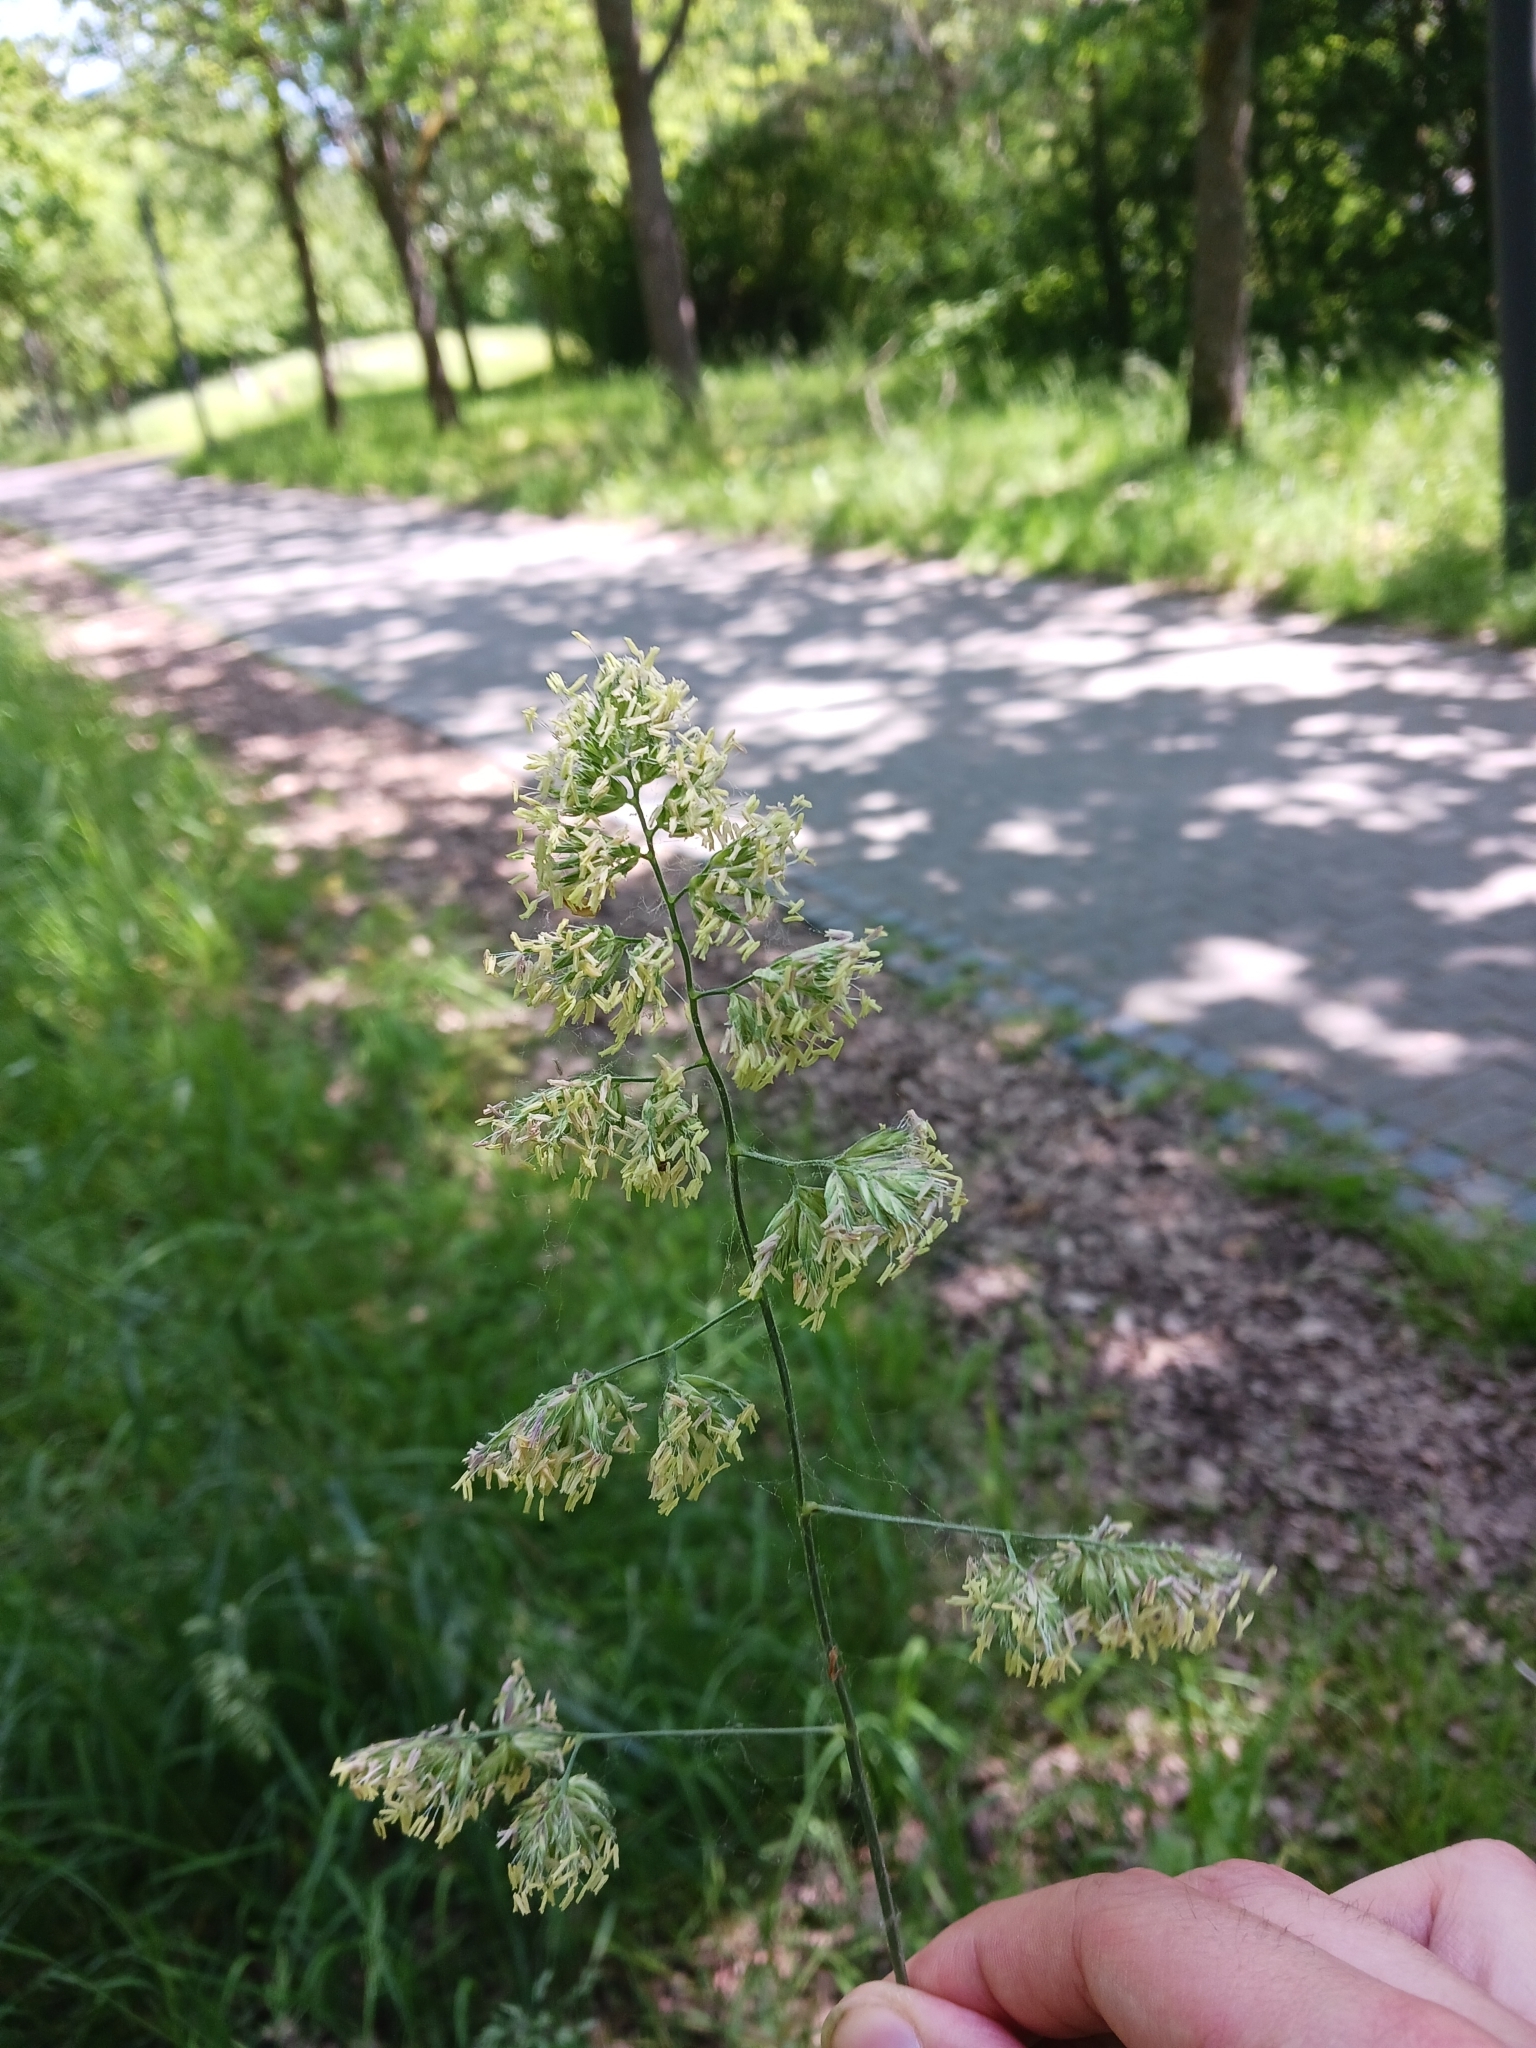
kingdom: Plantae
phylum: Tracheophyta
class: Liliopsida
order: Poales
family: Poaceae
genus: Dactylis
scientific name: Dactylis glomerata
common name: Orchardgrass
